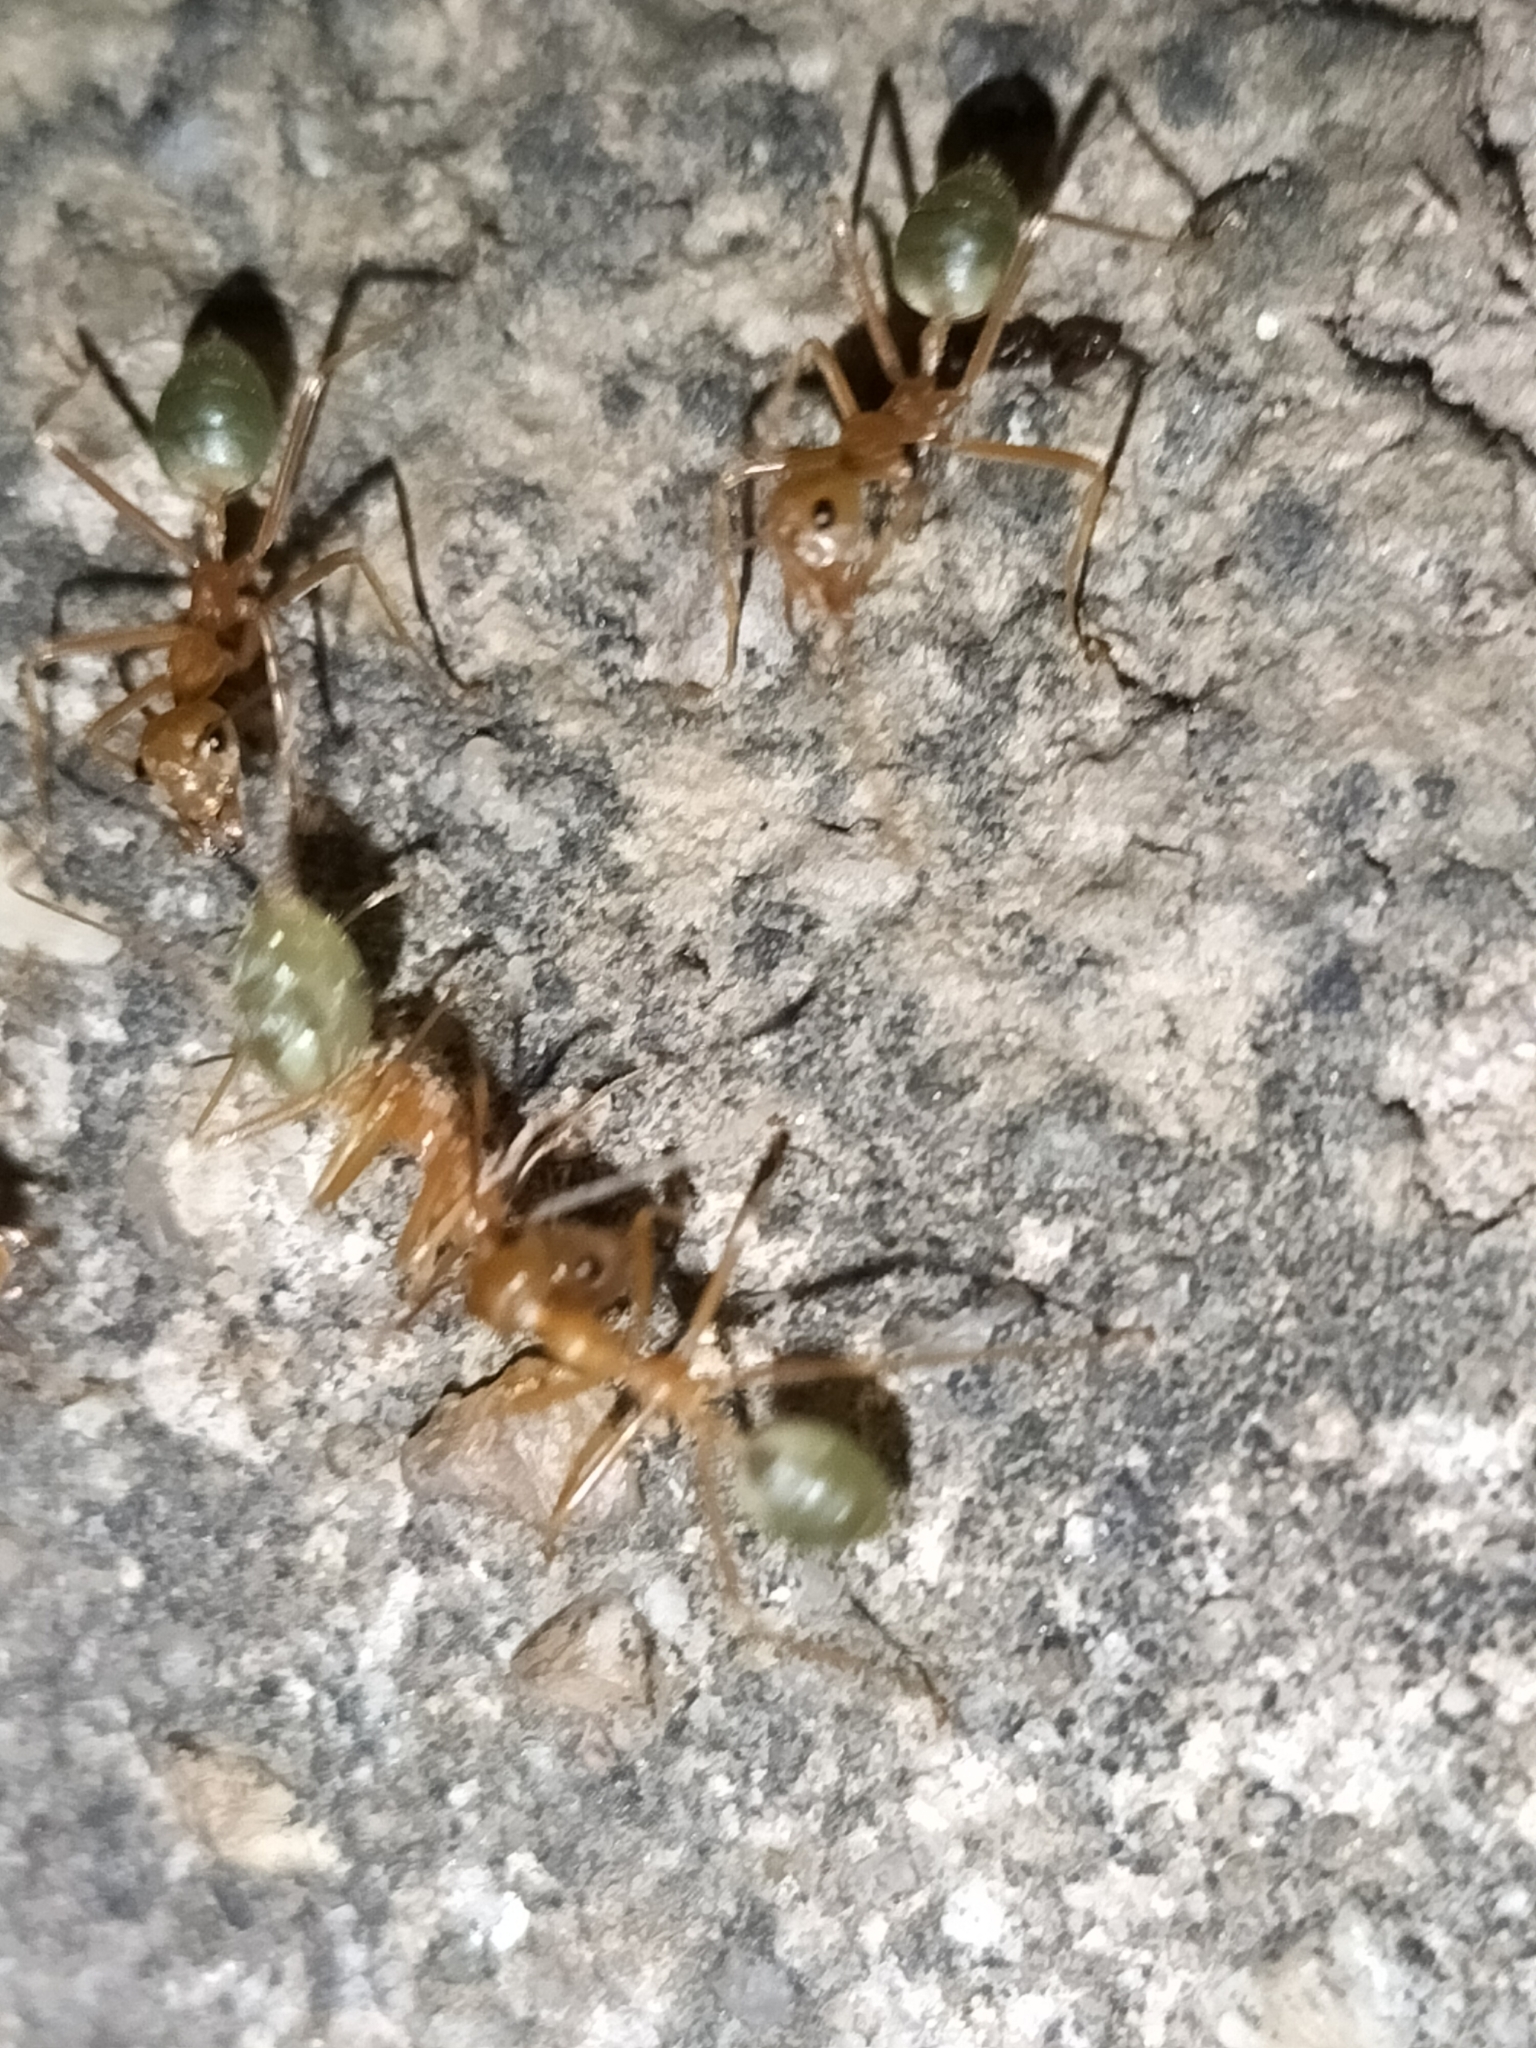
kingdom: Animalia
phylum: Arthropoda
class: Insecta
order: Hymenoptera
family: Formicidae
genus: Oecophylla
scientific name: Oecophylla smaragdina
